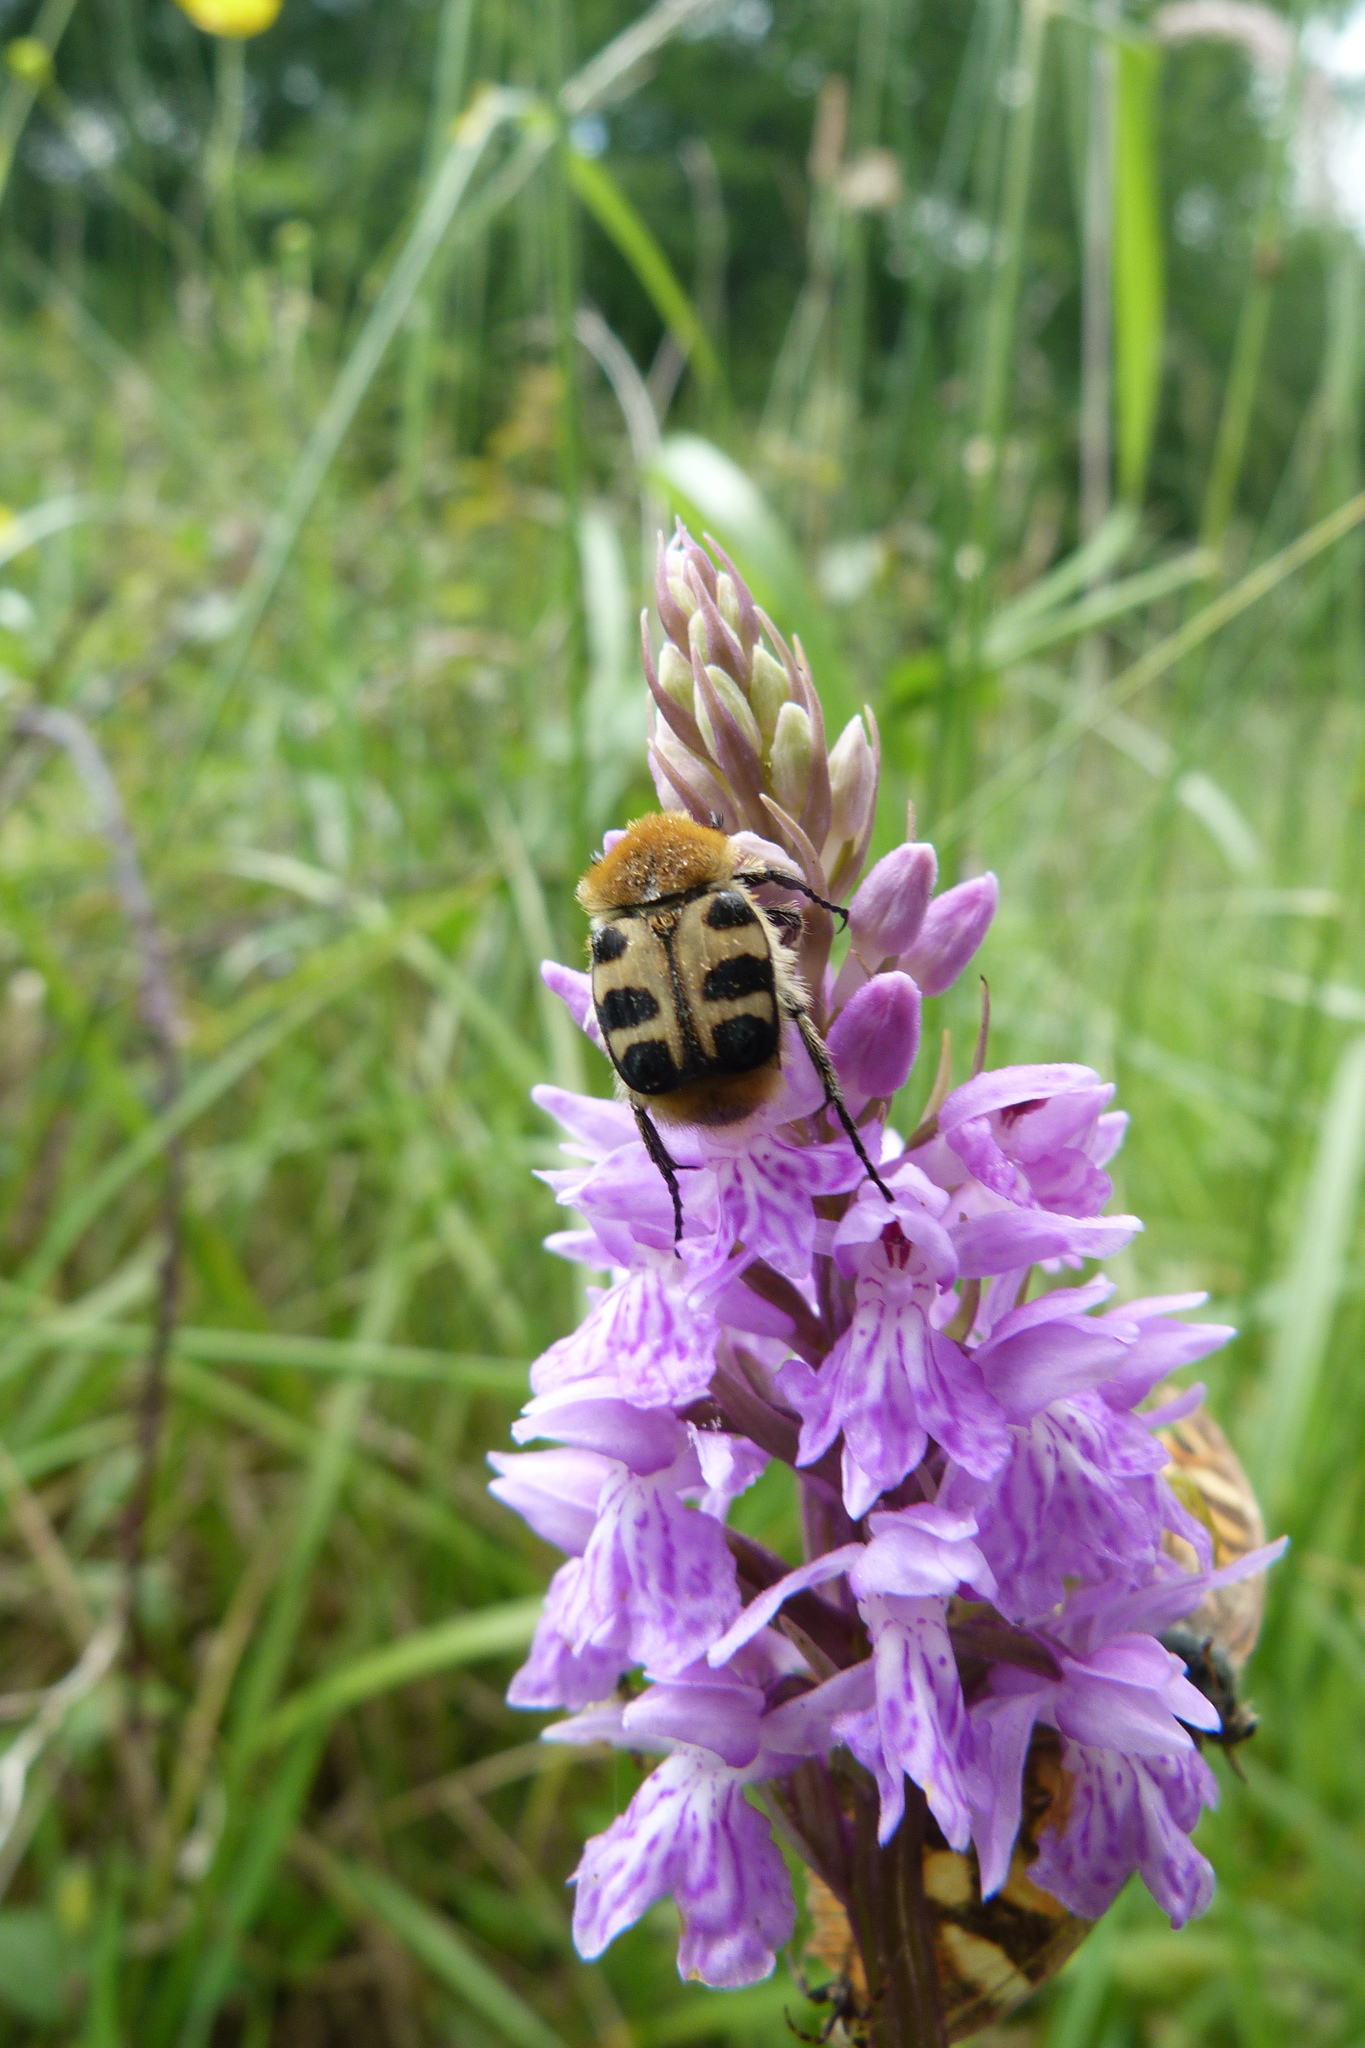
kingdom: Animalia
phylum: Arthropoda
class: Insecta
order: Coleoptera
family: Scarabaeidae
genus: Trichius
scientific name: Trichius gallicus
